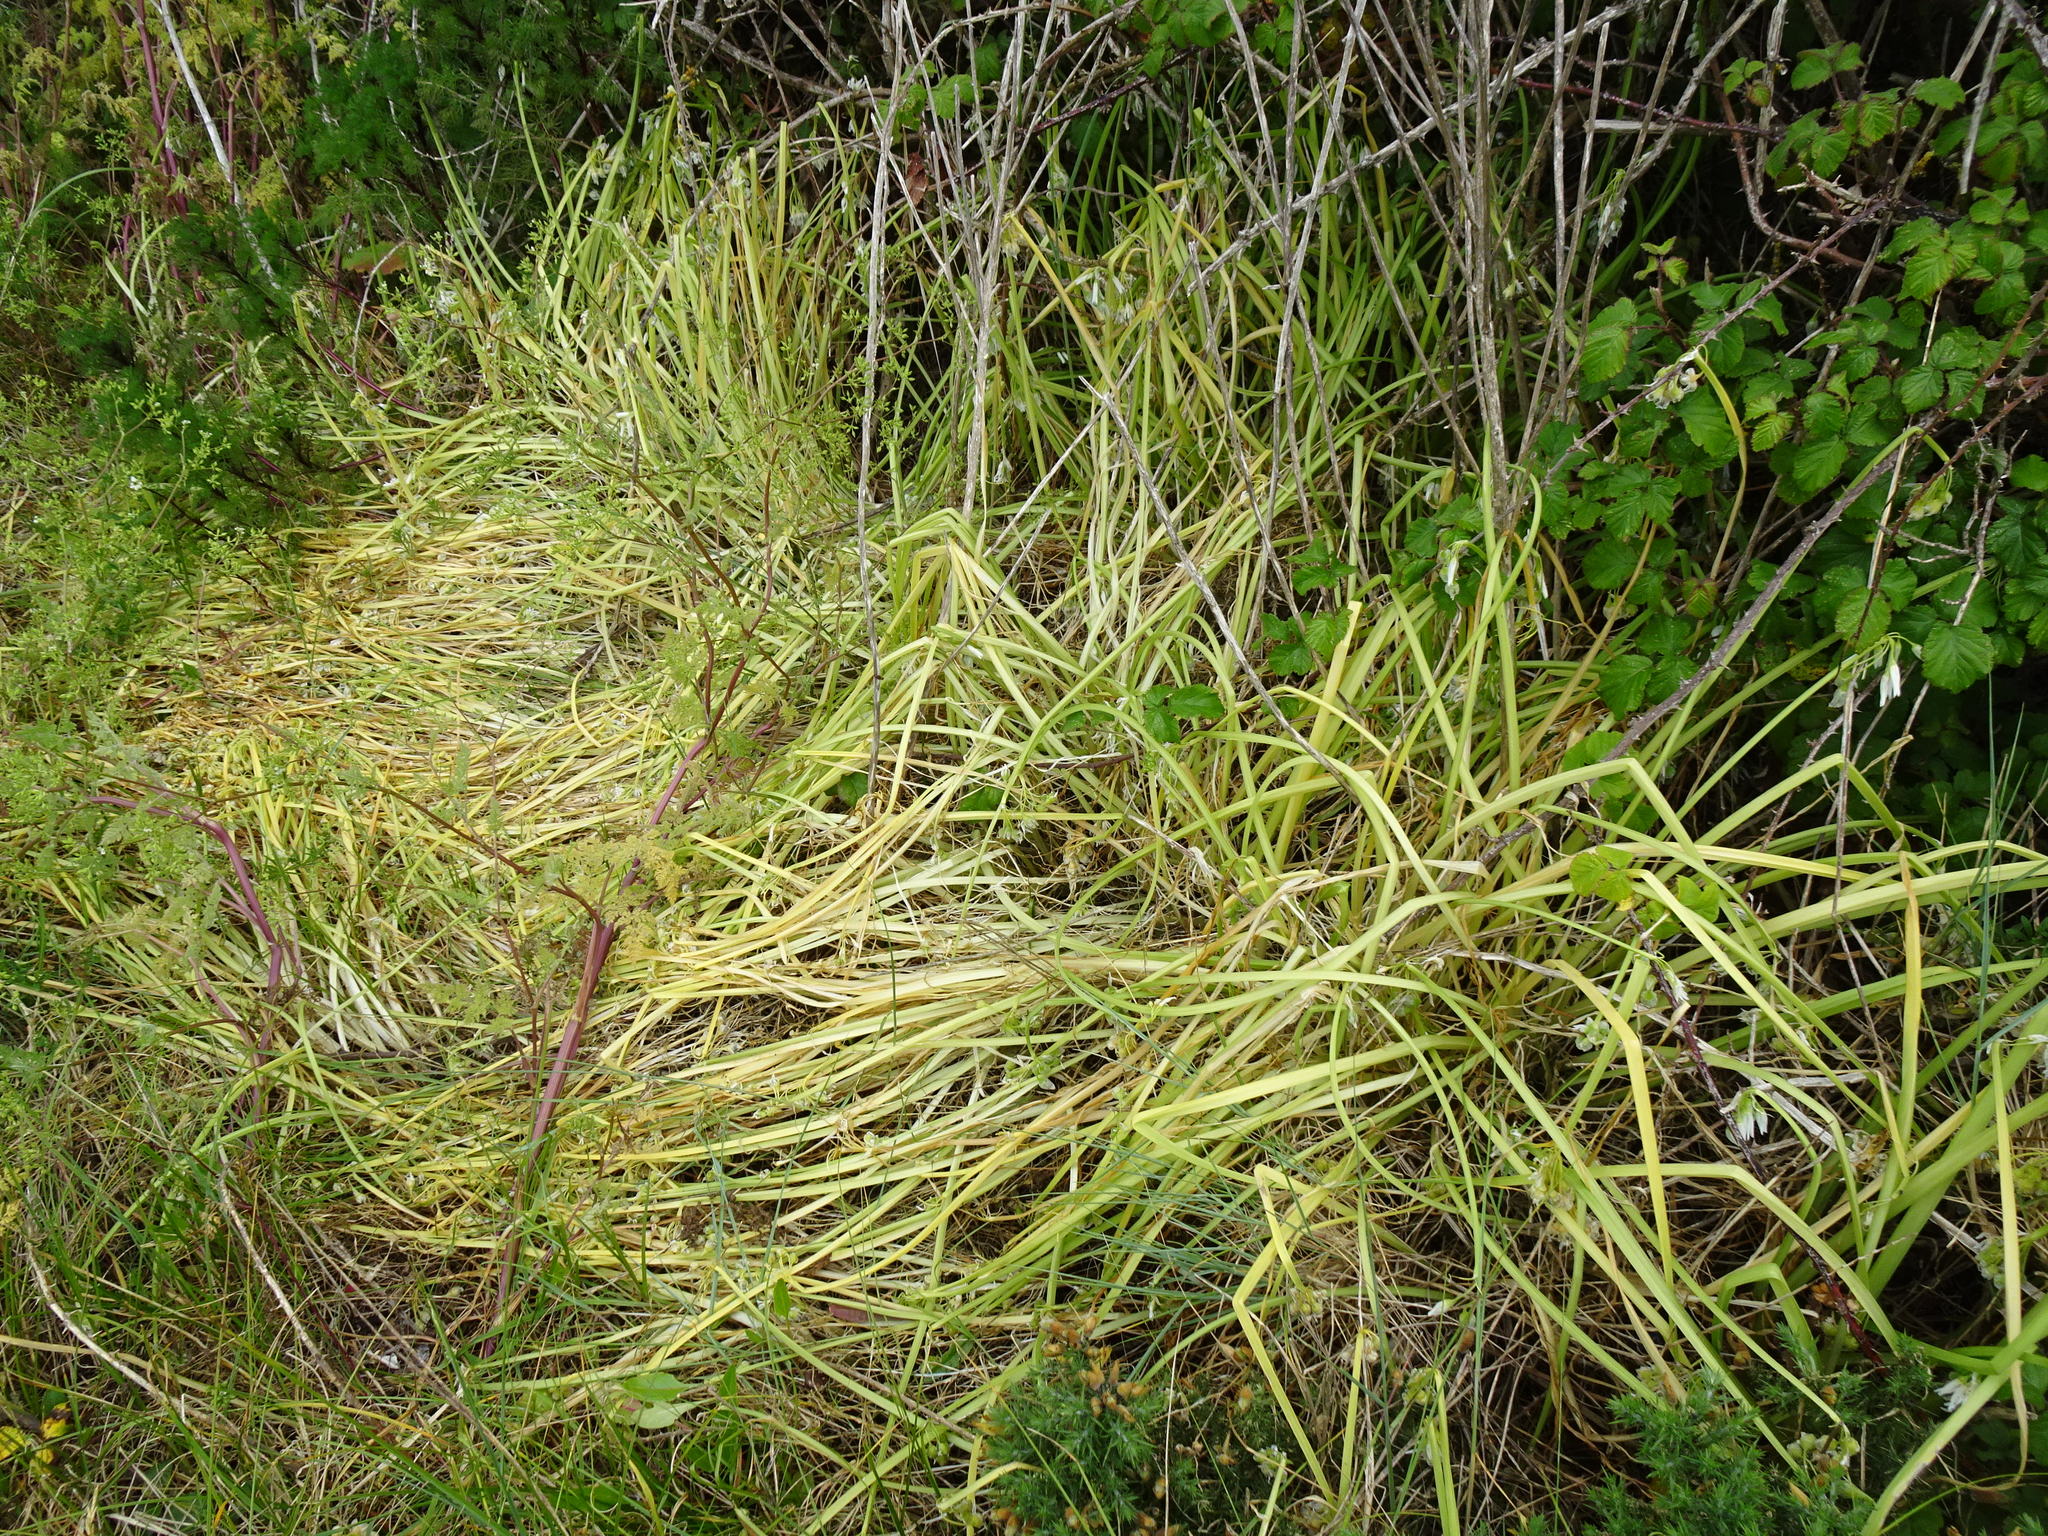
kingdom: Plantae
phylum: Tracheophyta
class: Liliopsida
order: Asparagales
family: Amaryllidaceae
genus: Allium
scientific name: Allium triquetrum
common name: Three-cornered garlic
